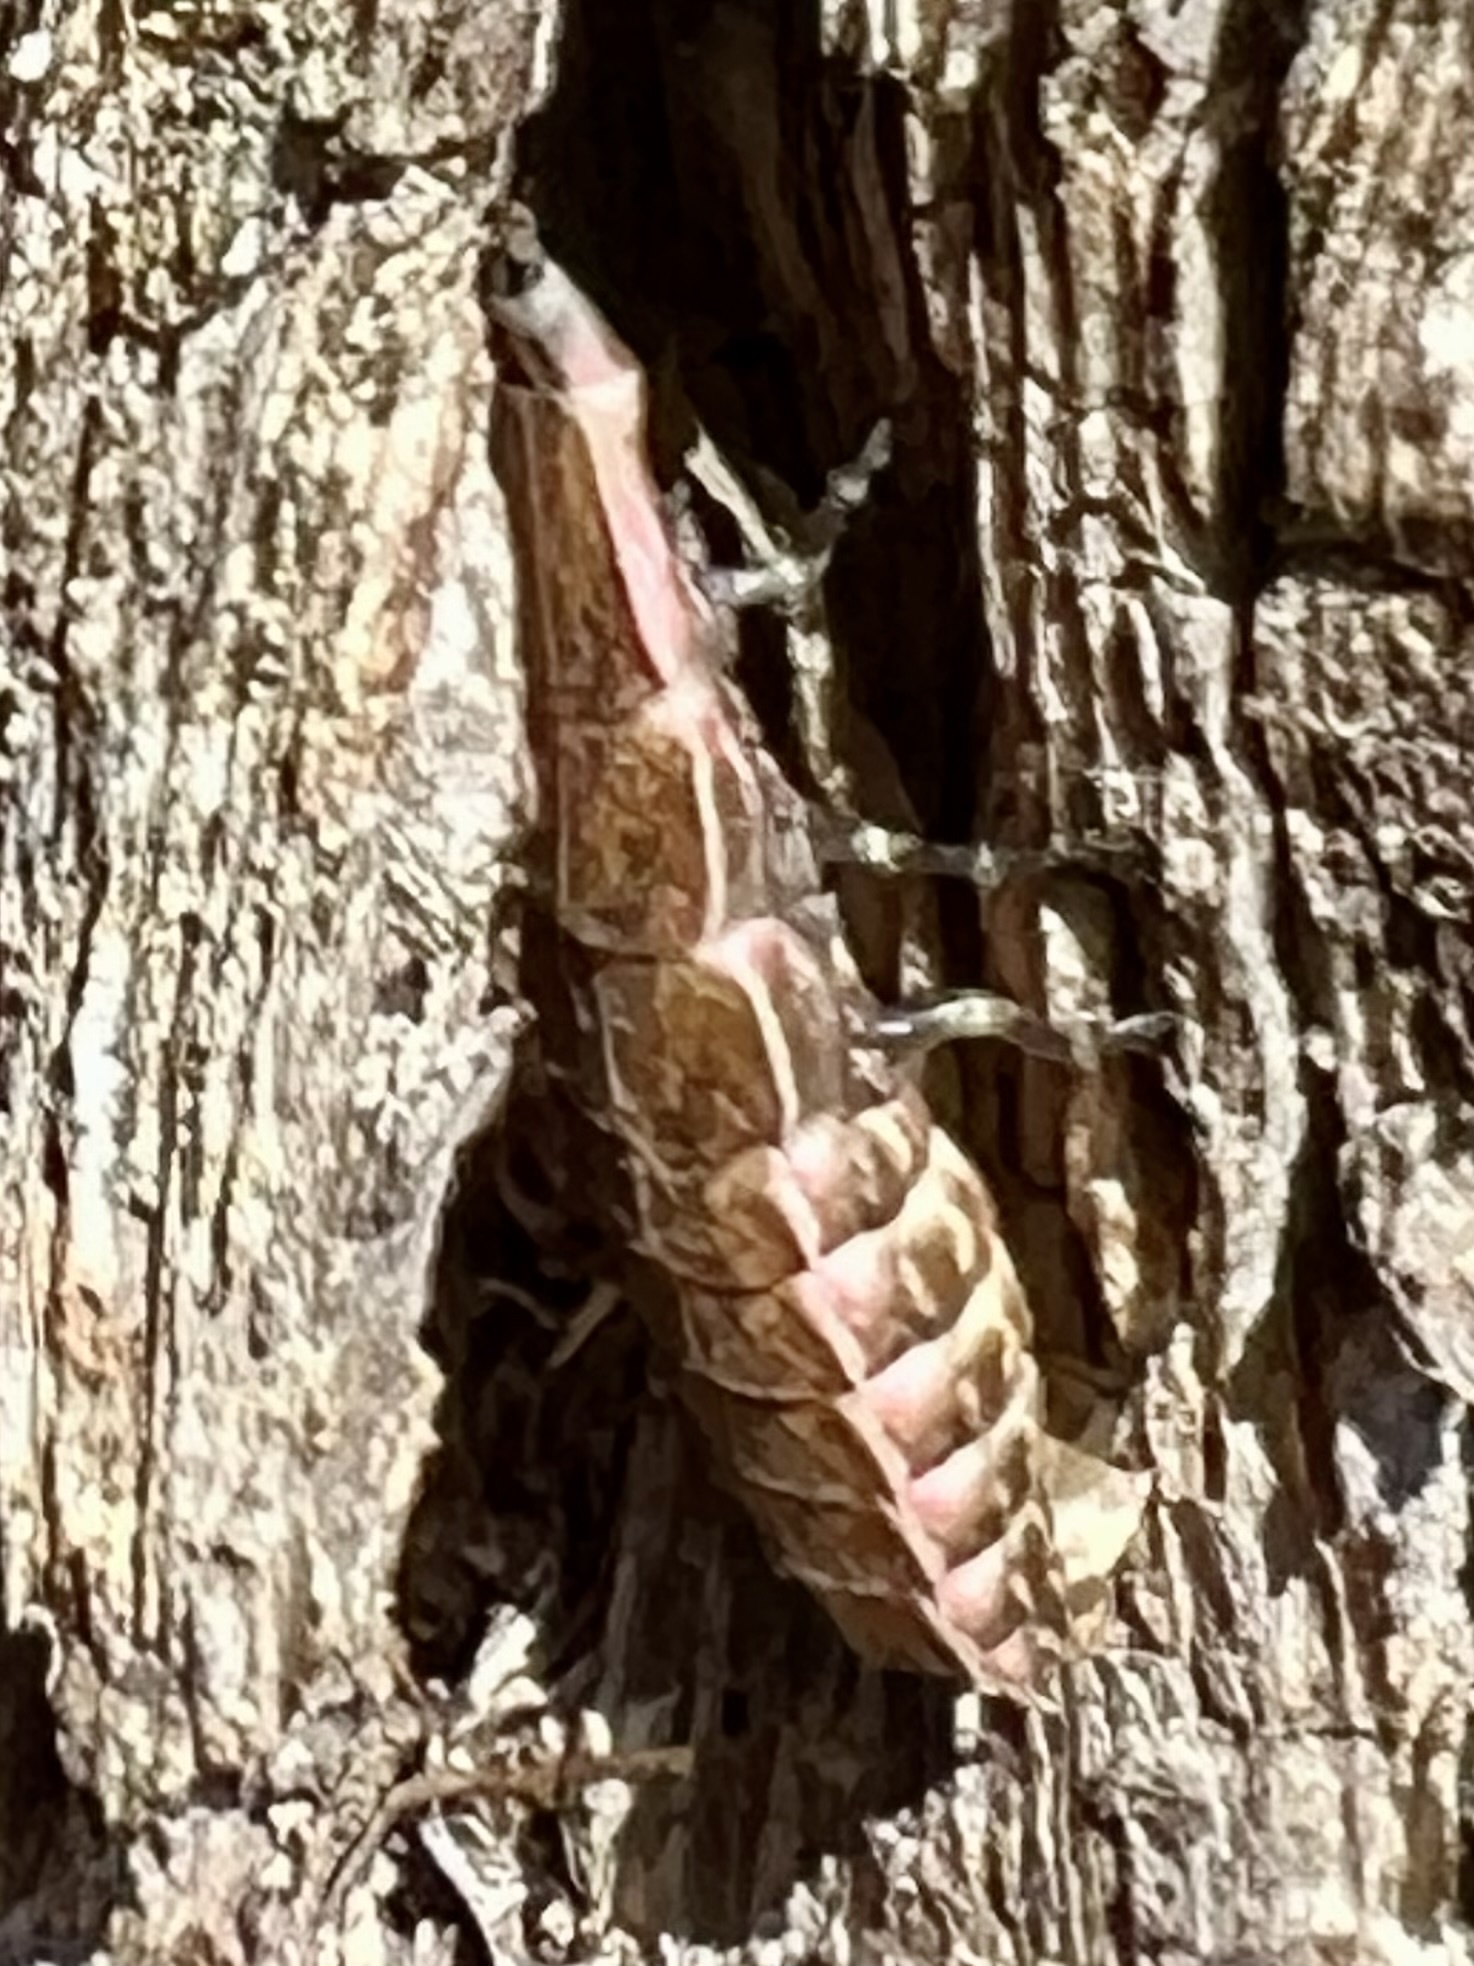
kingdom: Animalia
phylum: Arthropoda
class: Insecta
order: Coleoptera
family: Lampyridae
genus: Pyractomena
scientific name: Pyractomena borealis
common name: Northern firefly
